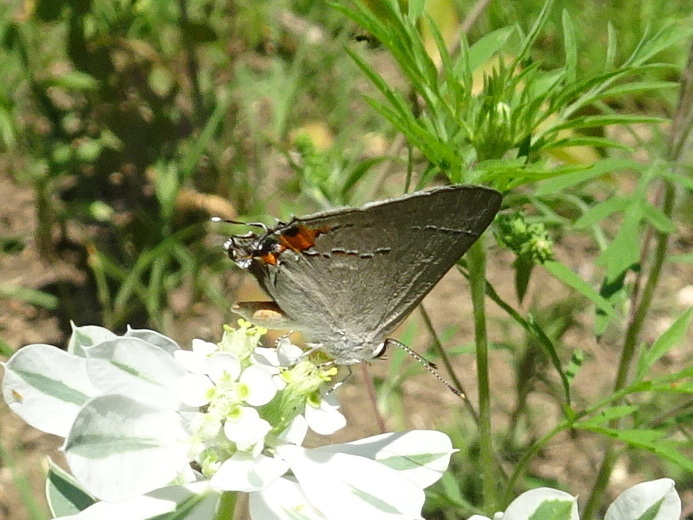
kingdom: Animalia
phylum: Arthropoda
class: Insecta
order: Lepidoptera
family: Lycaenidae
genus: Strymon
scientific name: Strymon melinus
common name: Gray hairstreak
